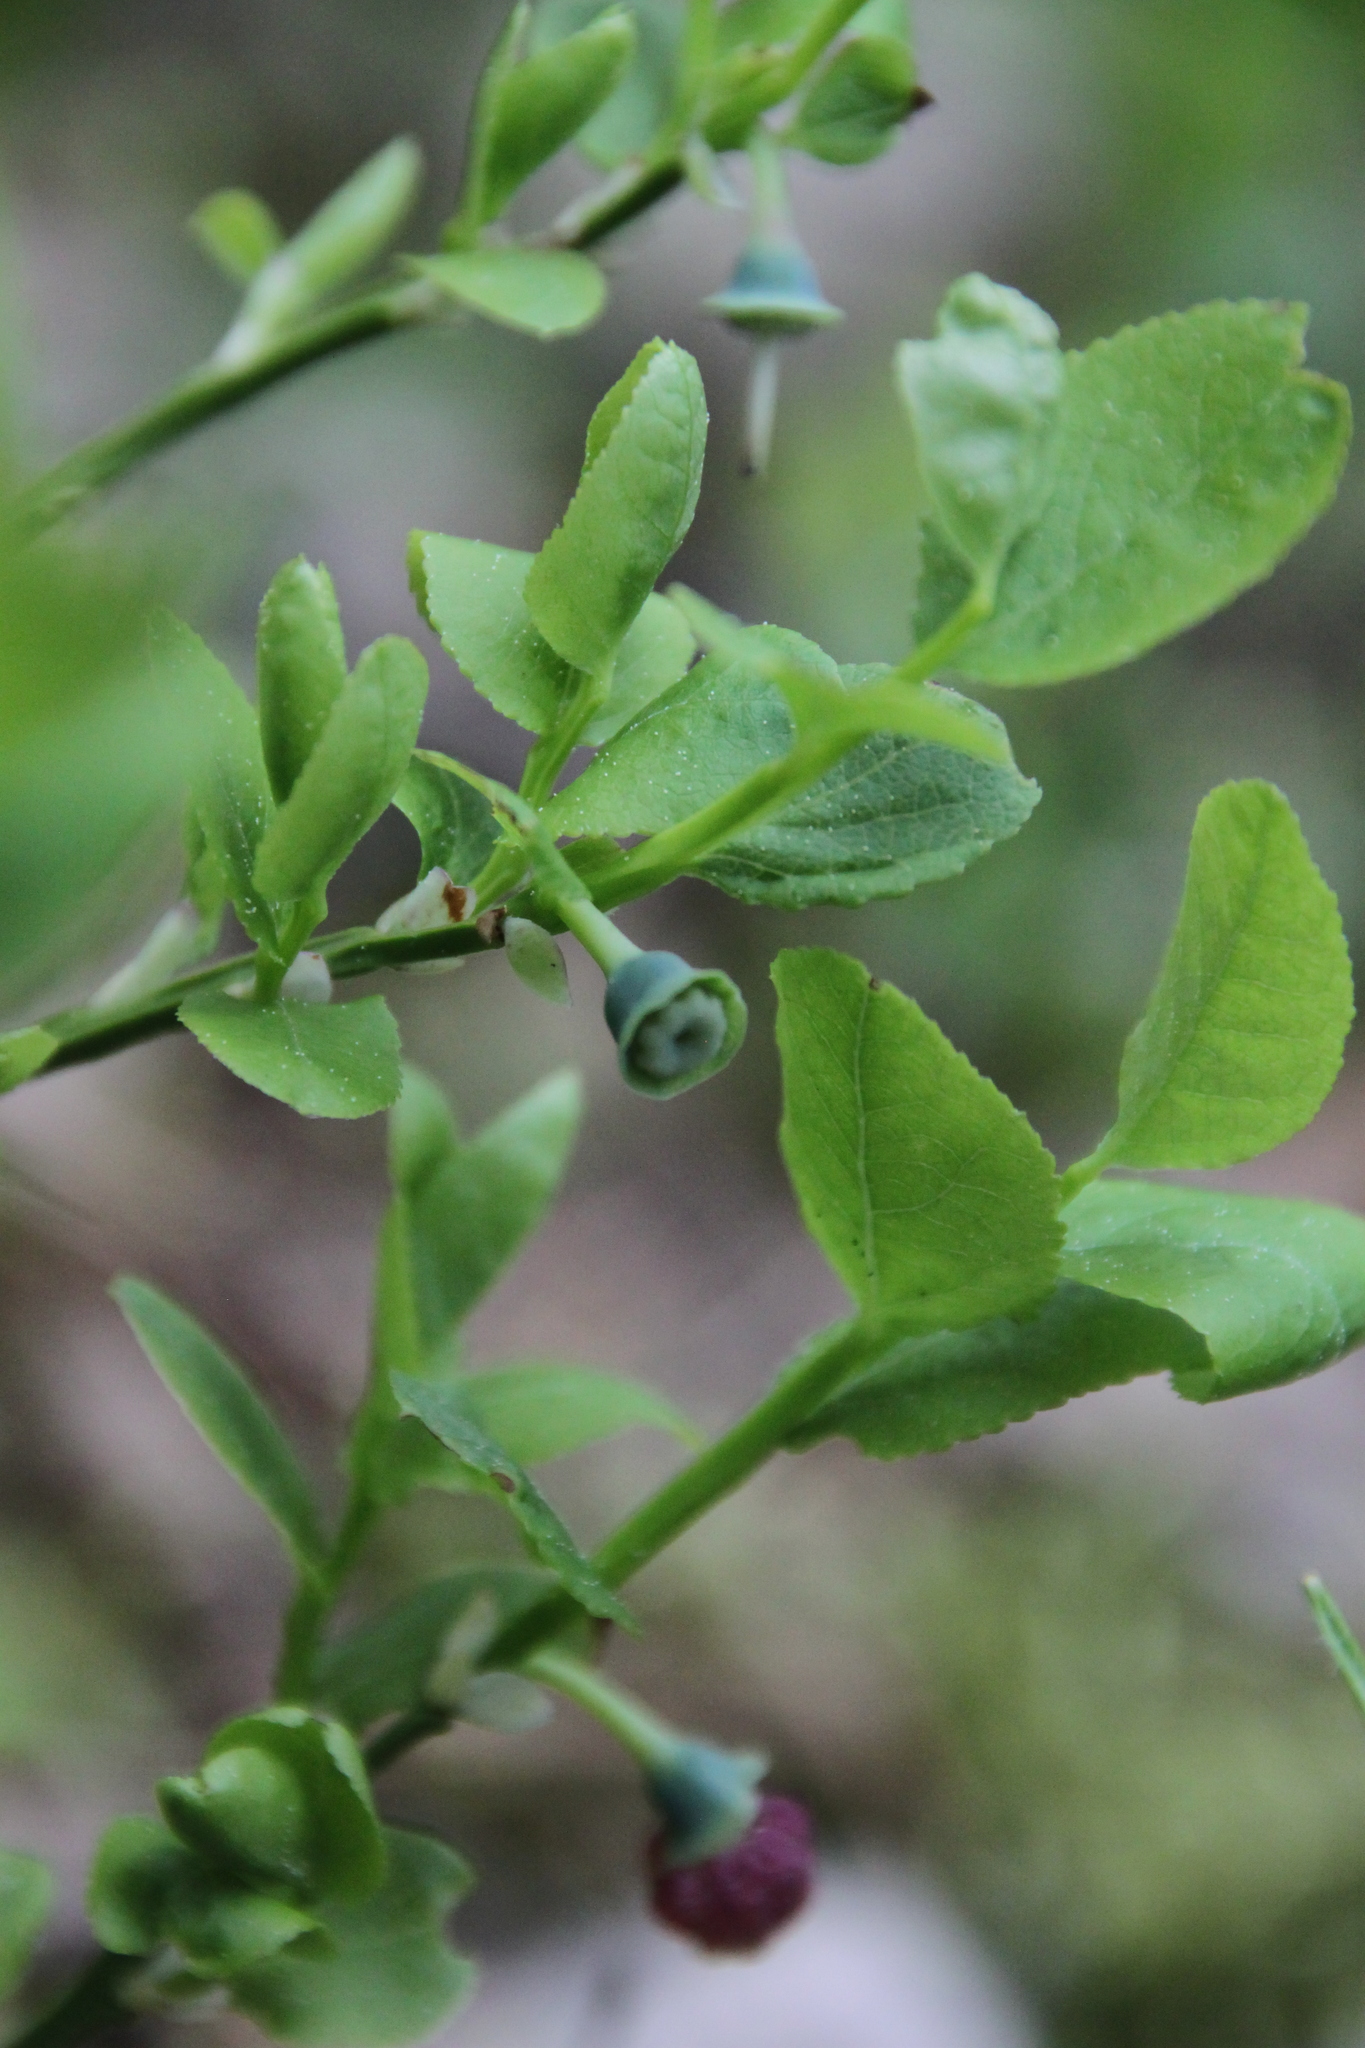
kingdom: Plantae
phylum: Tracheophyta
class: Magnoliopsida
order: Ericales
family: Ericaceae
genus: Vaccinium
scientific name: Vaccinium myrtillus
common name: Bilberry
